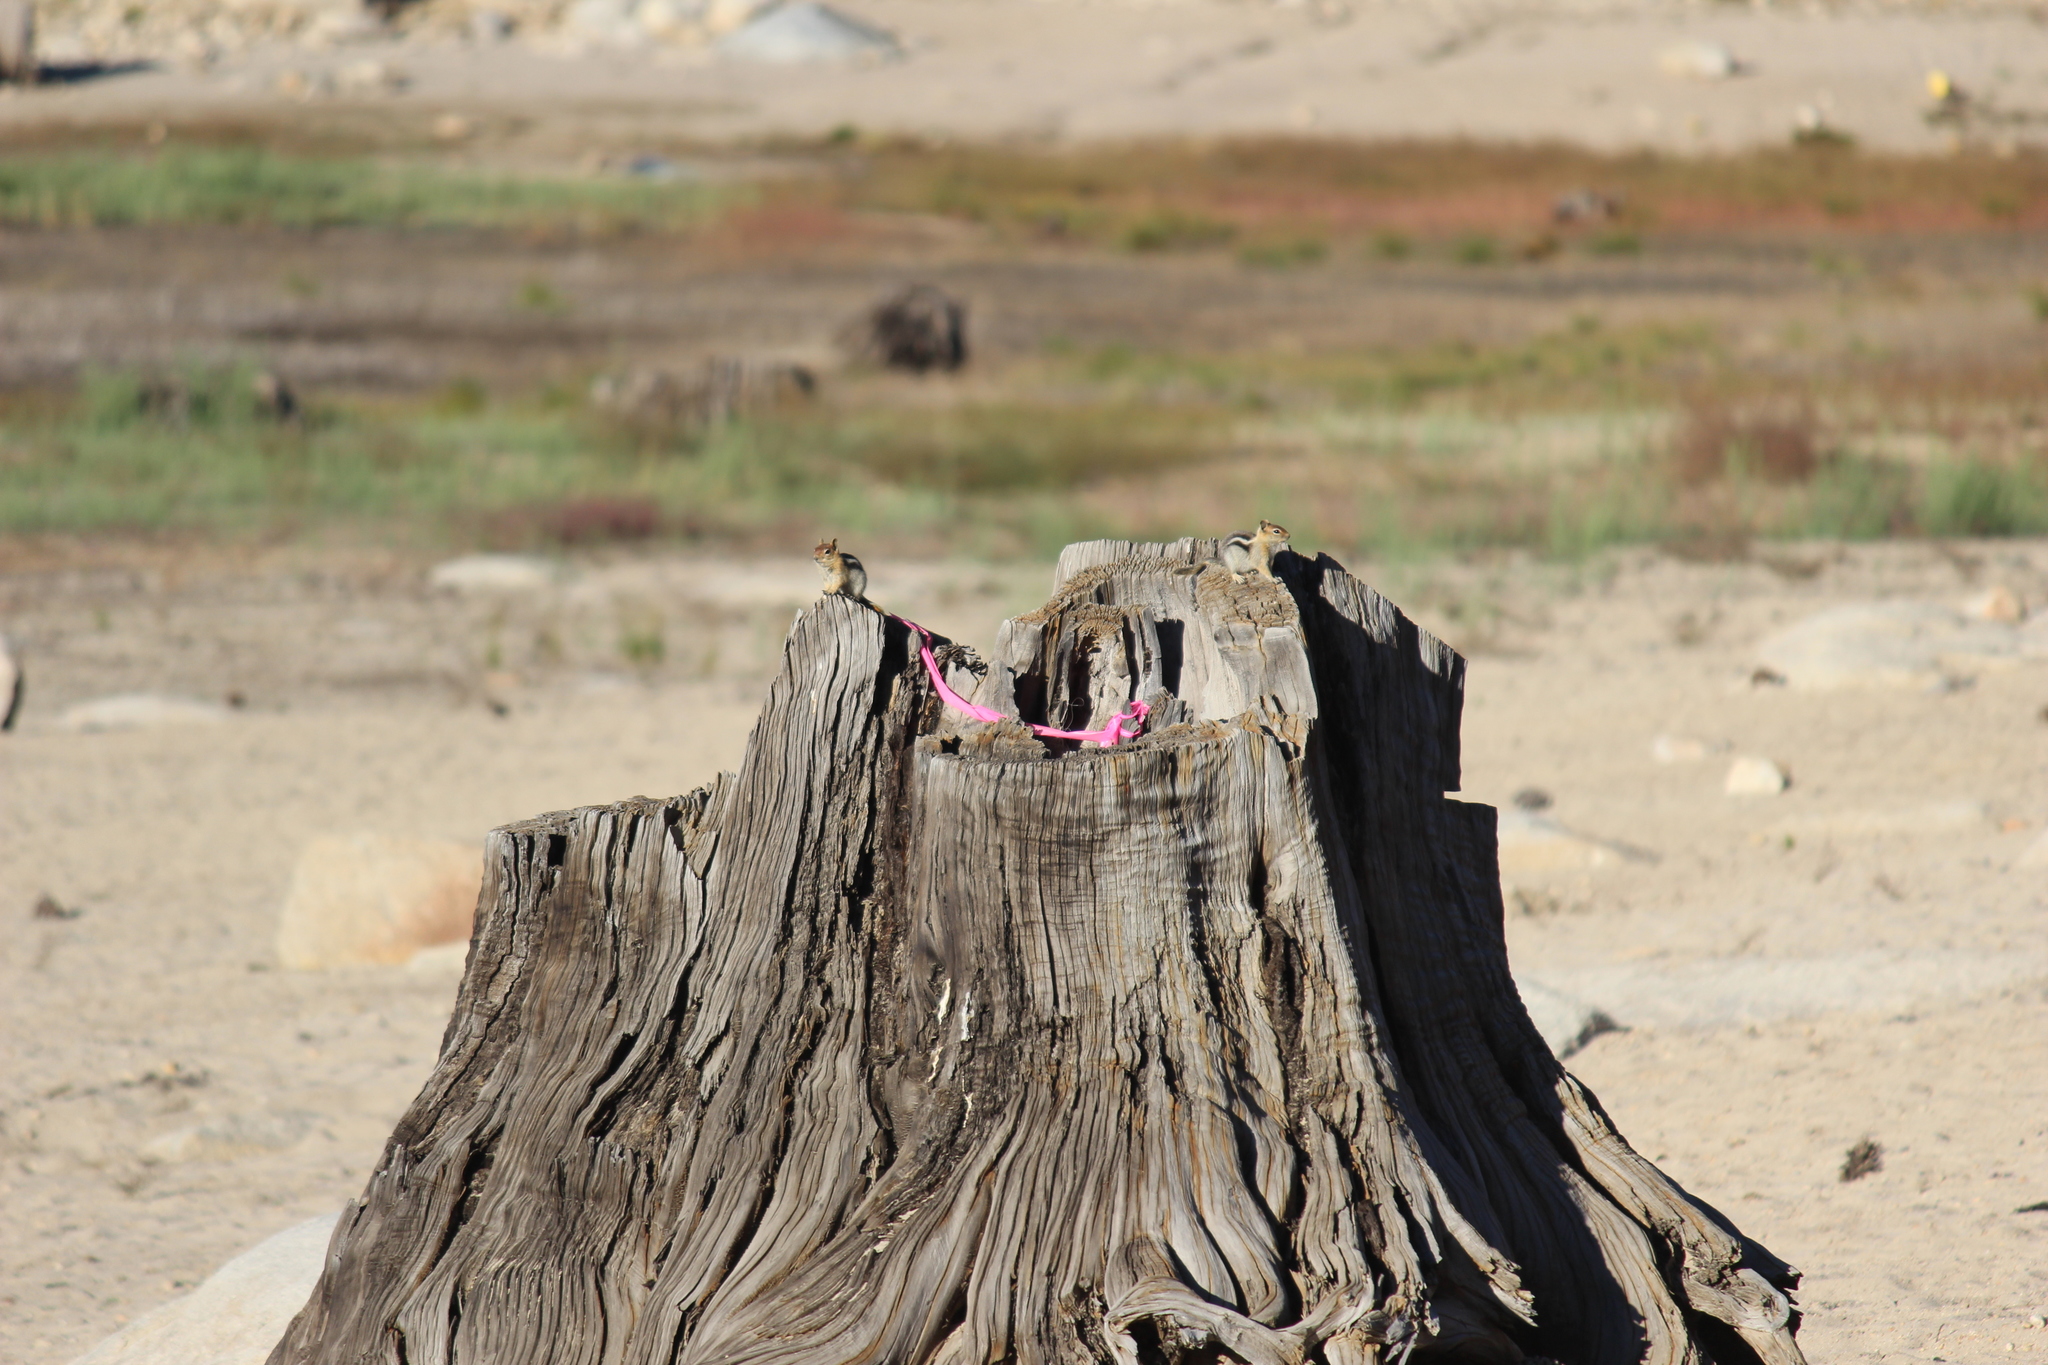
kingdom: Animalia
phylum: Chordata
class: Mammalia
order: Rodentia
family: Sciuridae
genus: Callospermophilus
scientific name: Callospermophilus lateralis
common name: Golden-mantled ground squirrel
